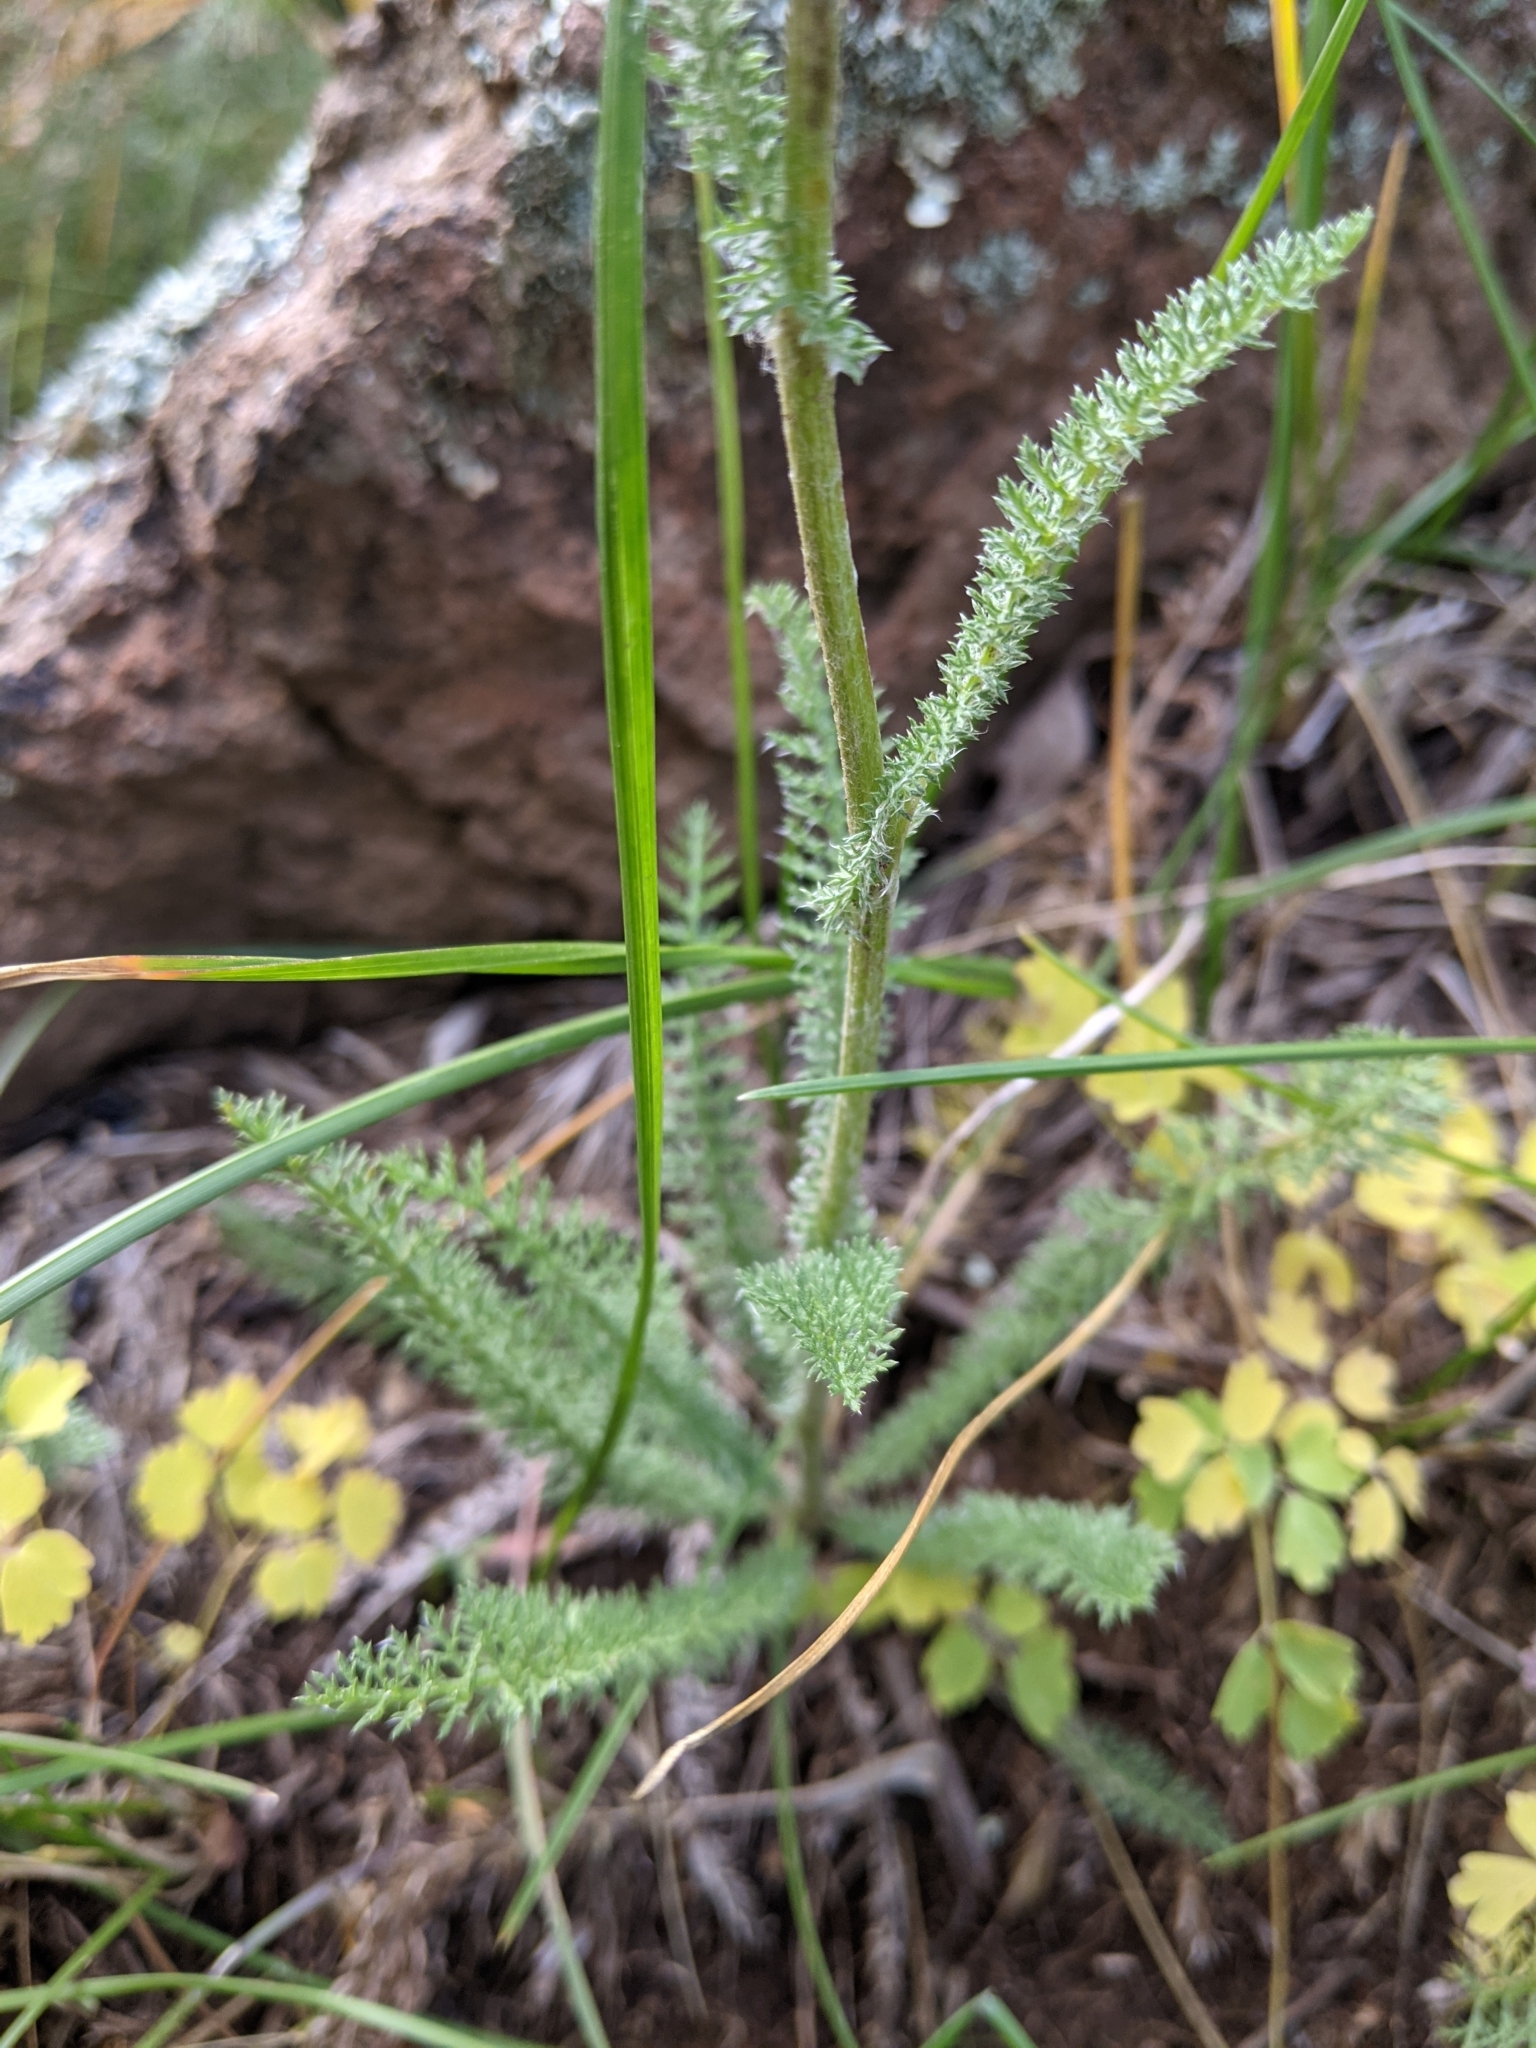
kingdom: Plantae
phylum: Tracheophyta
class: Magnoliopsida
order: Asterales
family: Asteraceae
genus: Achillea
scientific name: Achillea millefolium
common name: Yarrow
